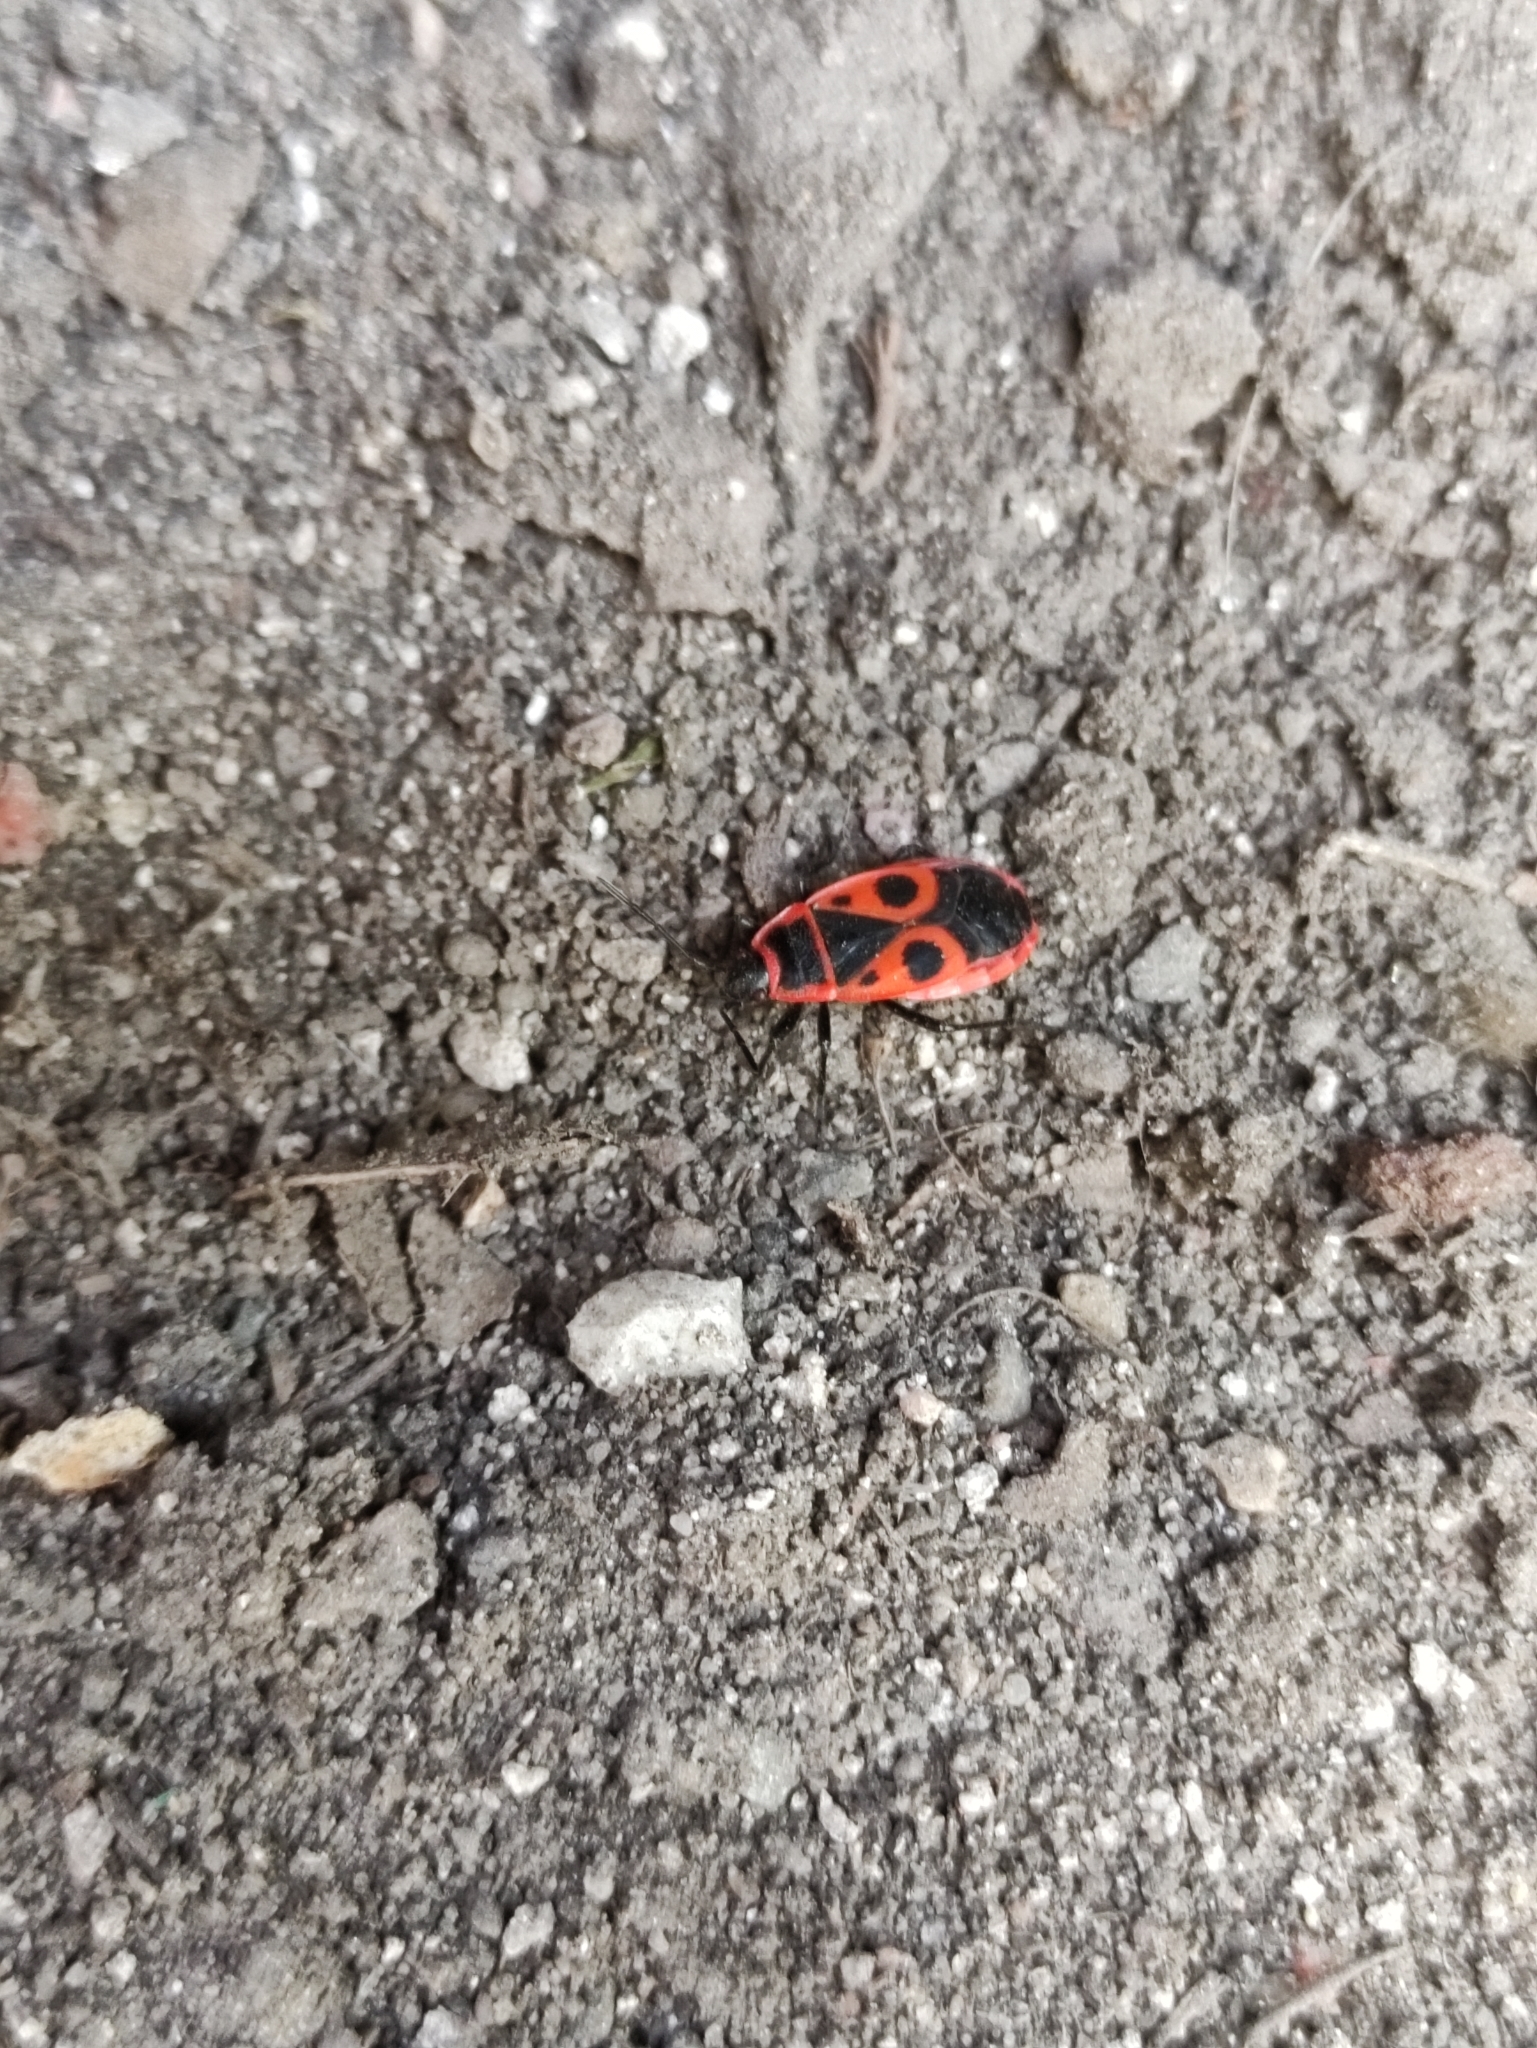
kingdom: Animalia
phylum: Arthropoda
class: Insecta
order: Hemiptera
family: Pyrrhocoridae
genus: Pyrrhocoris
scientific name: Pyrrhocoris apterus
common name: Firebug
